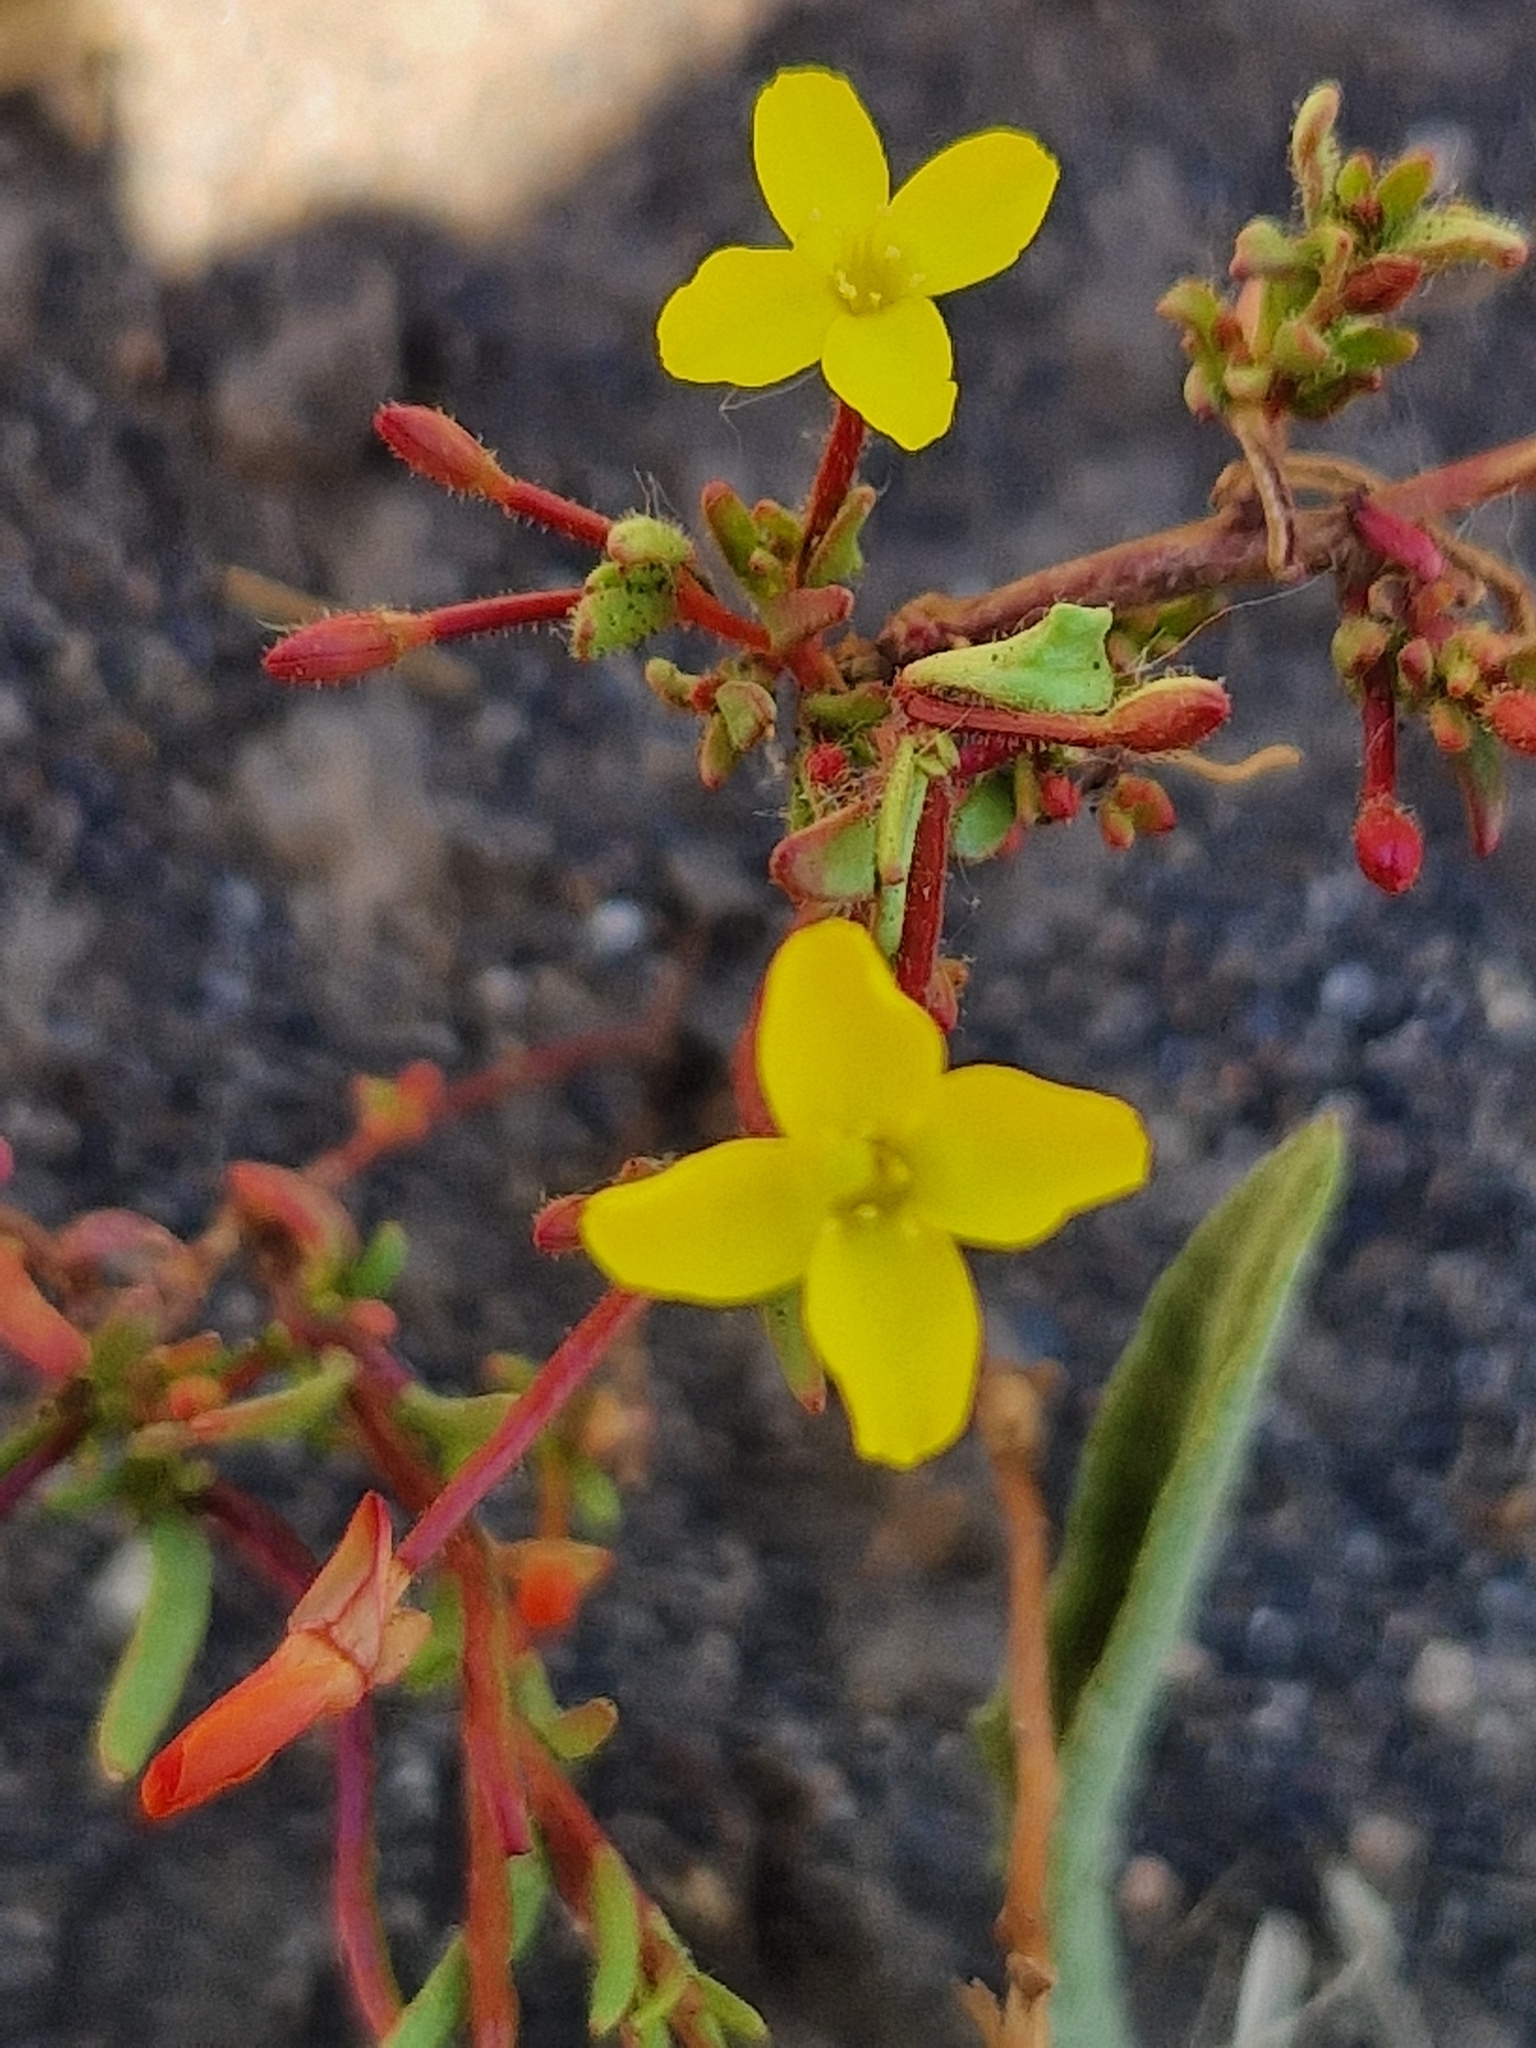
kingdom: Plantae
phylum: Tracheophyta
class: Magnoliopsida
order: Myrtales
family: Onagraceae
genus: Camissonia
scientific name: Camissonia dentata
